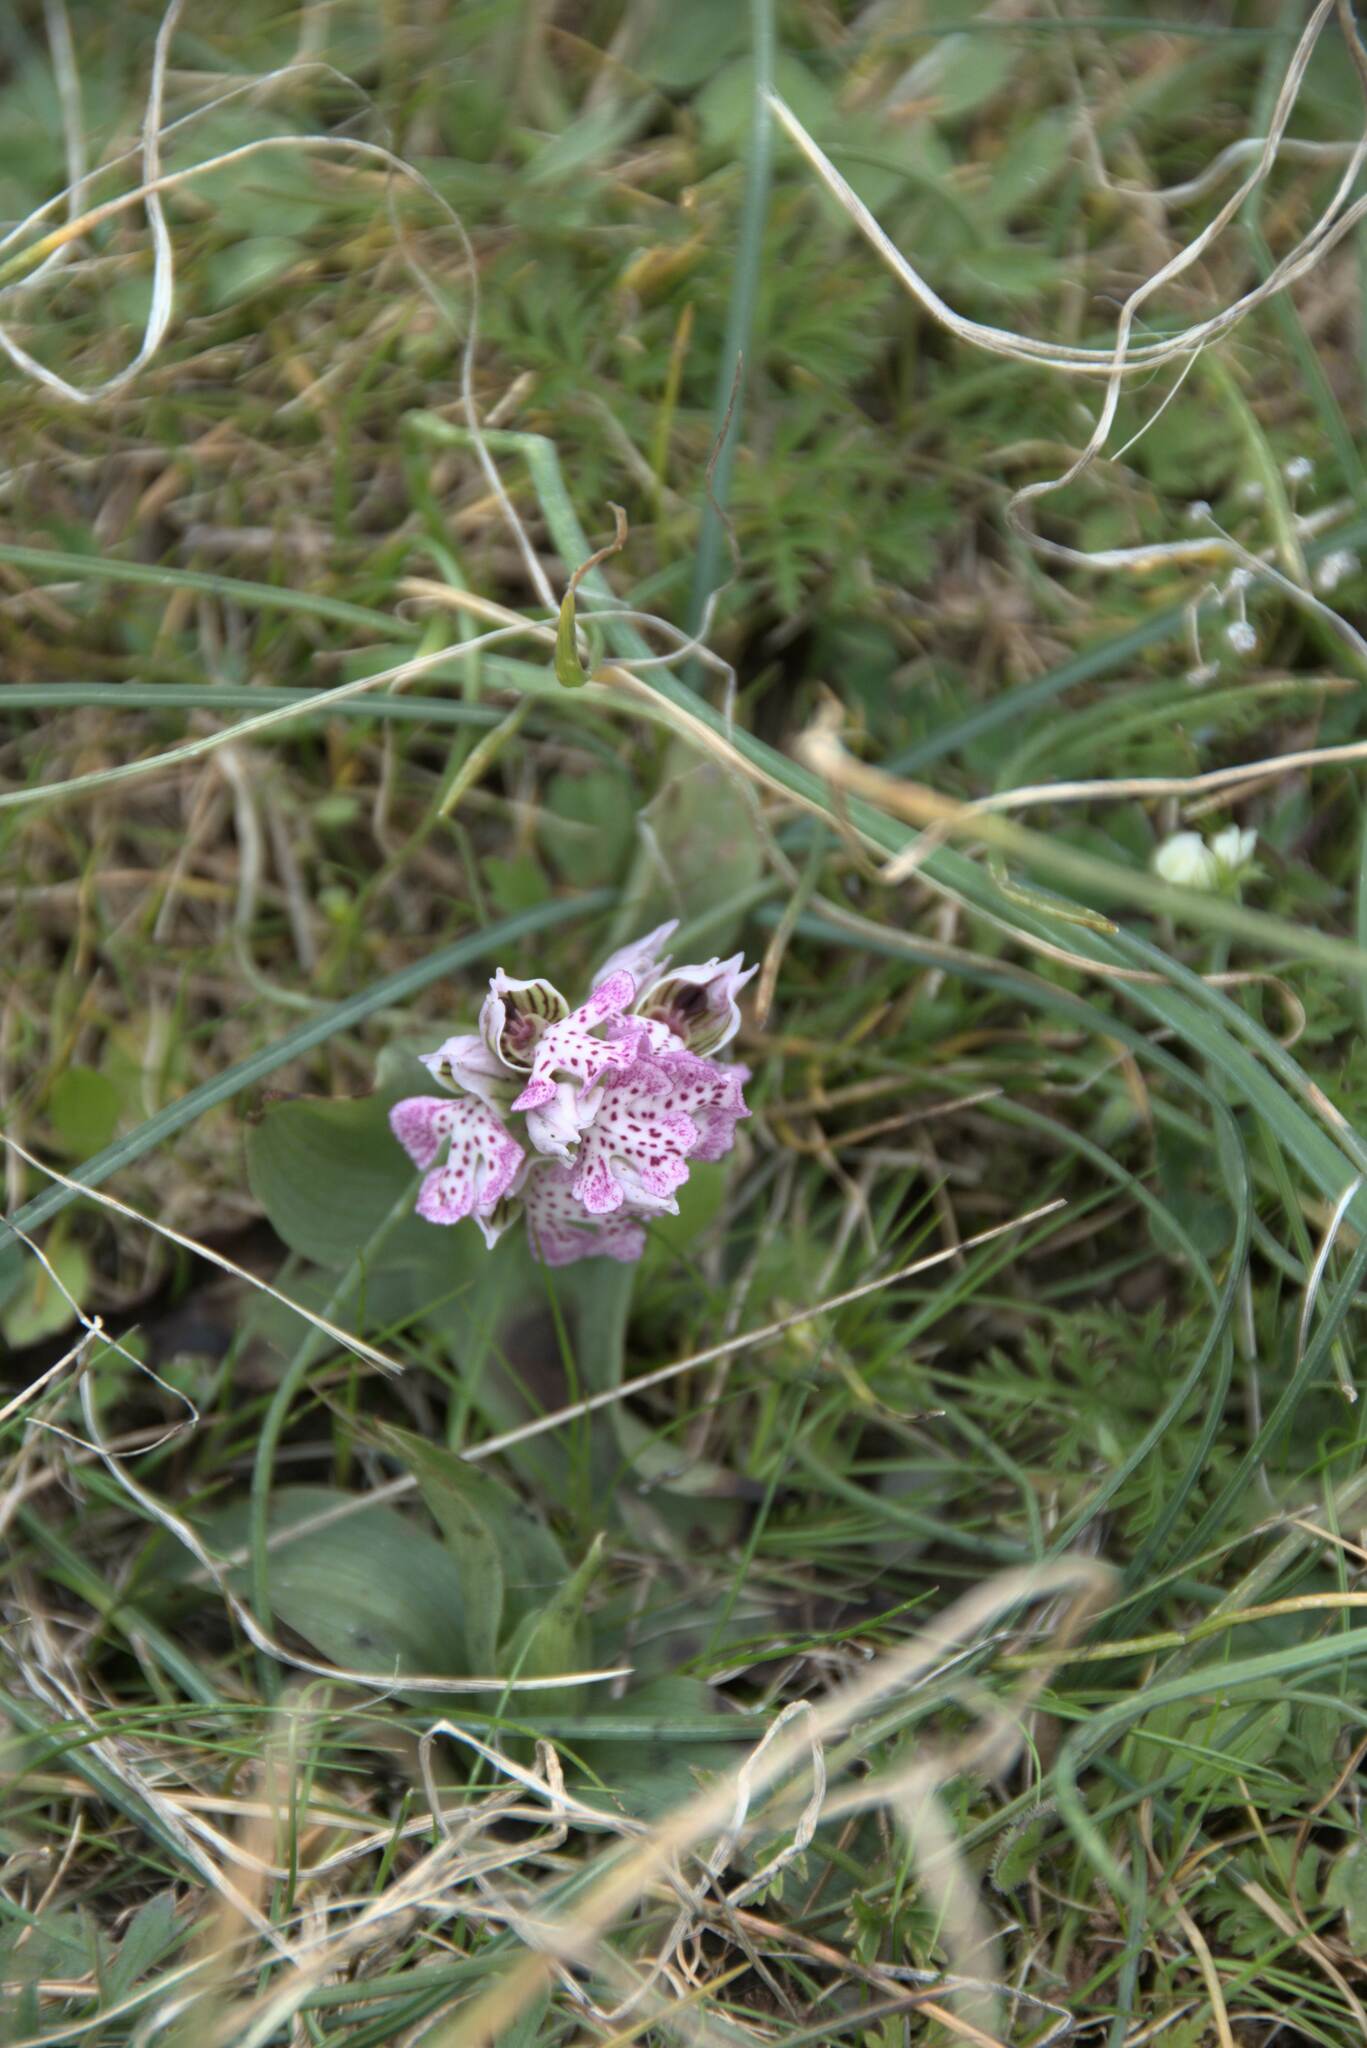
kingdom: Plantae
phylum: Tracheophyta
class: Liliopsida
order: Asparagales
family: Orchidaceae
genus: Neotinea
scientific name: Neotinea lactea
